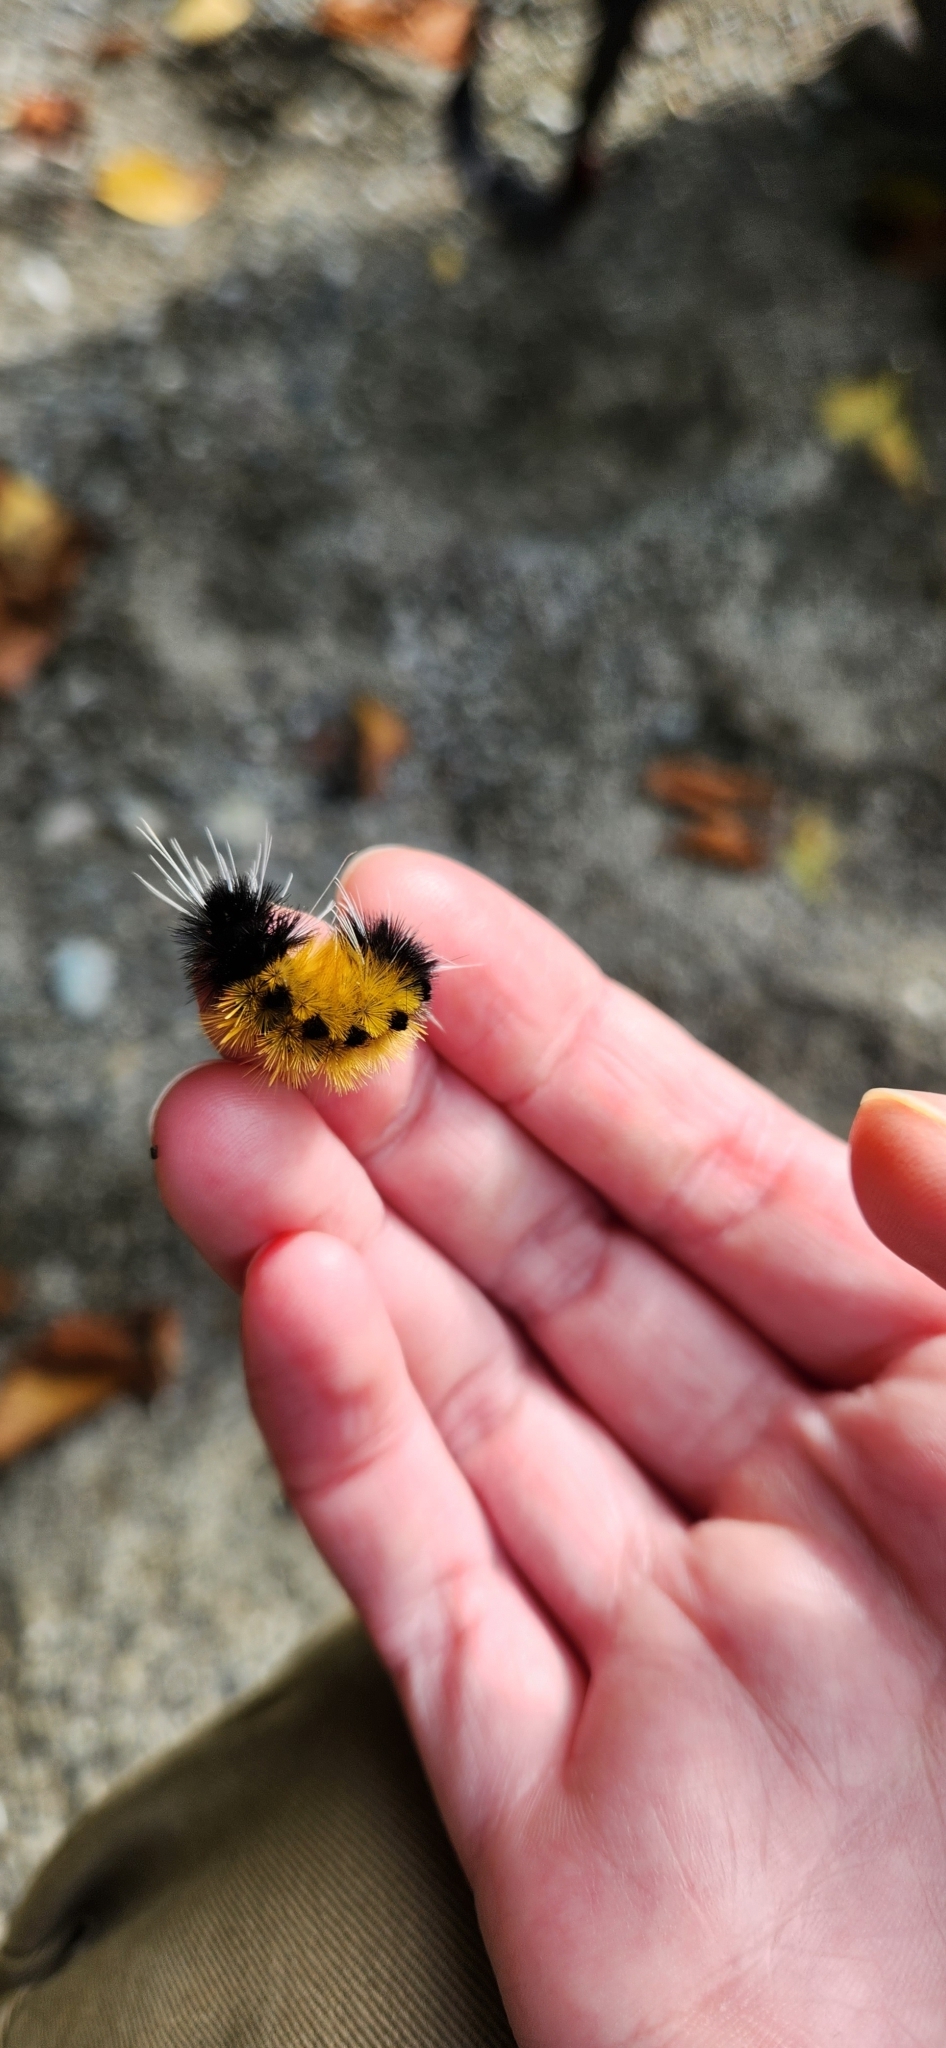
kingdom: Animalia
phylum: Arthropoda
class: Insecta
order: Lepidoptera
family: Erebidae
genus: Lophocampa
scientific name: Lophocampa maculata
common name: Spotted tussock moth
